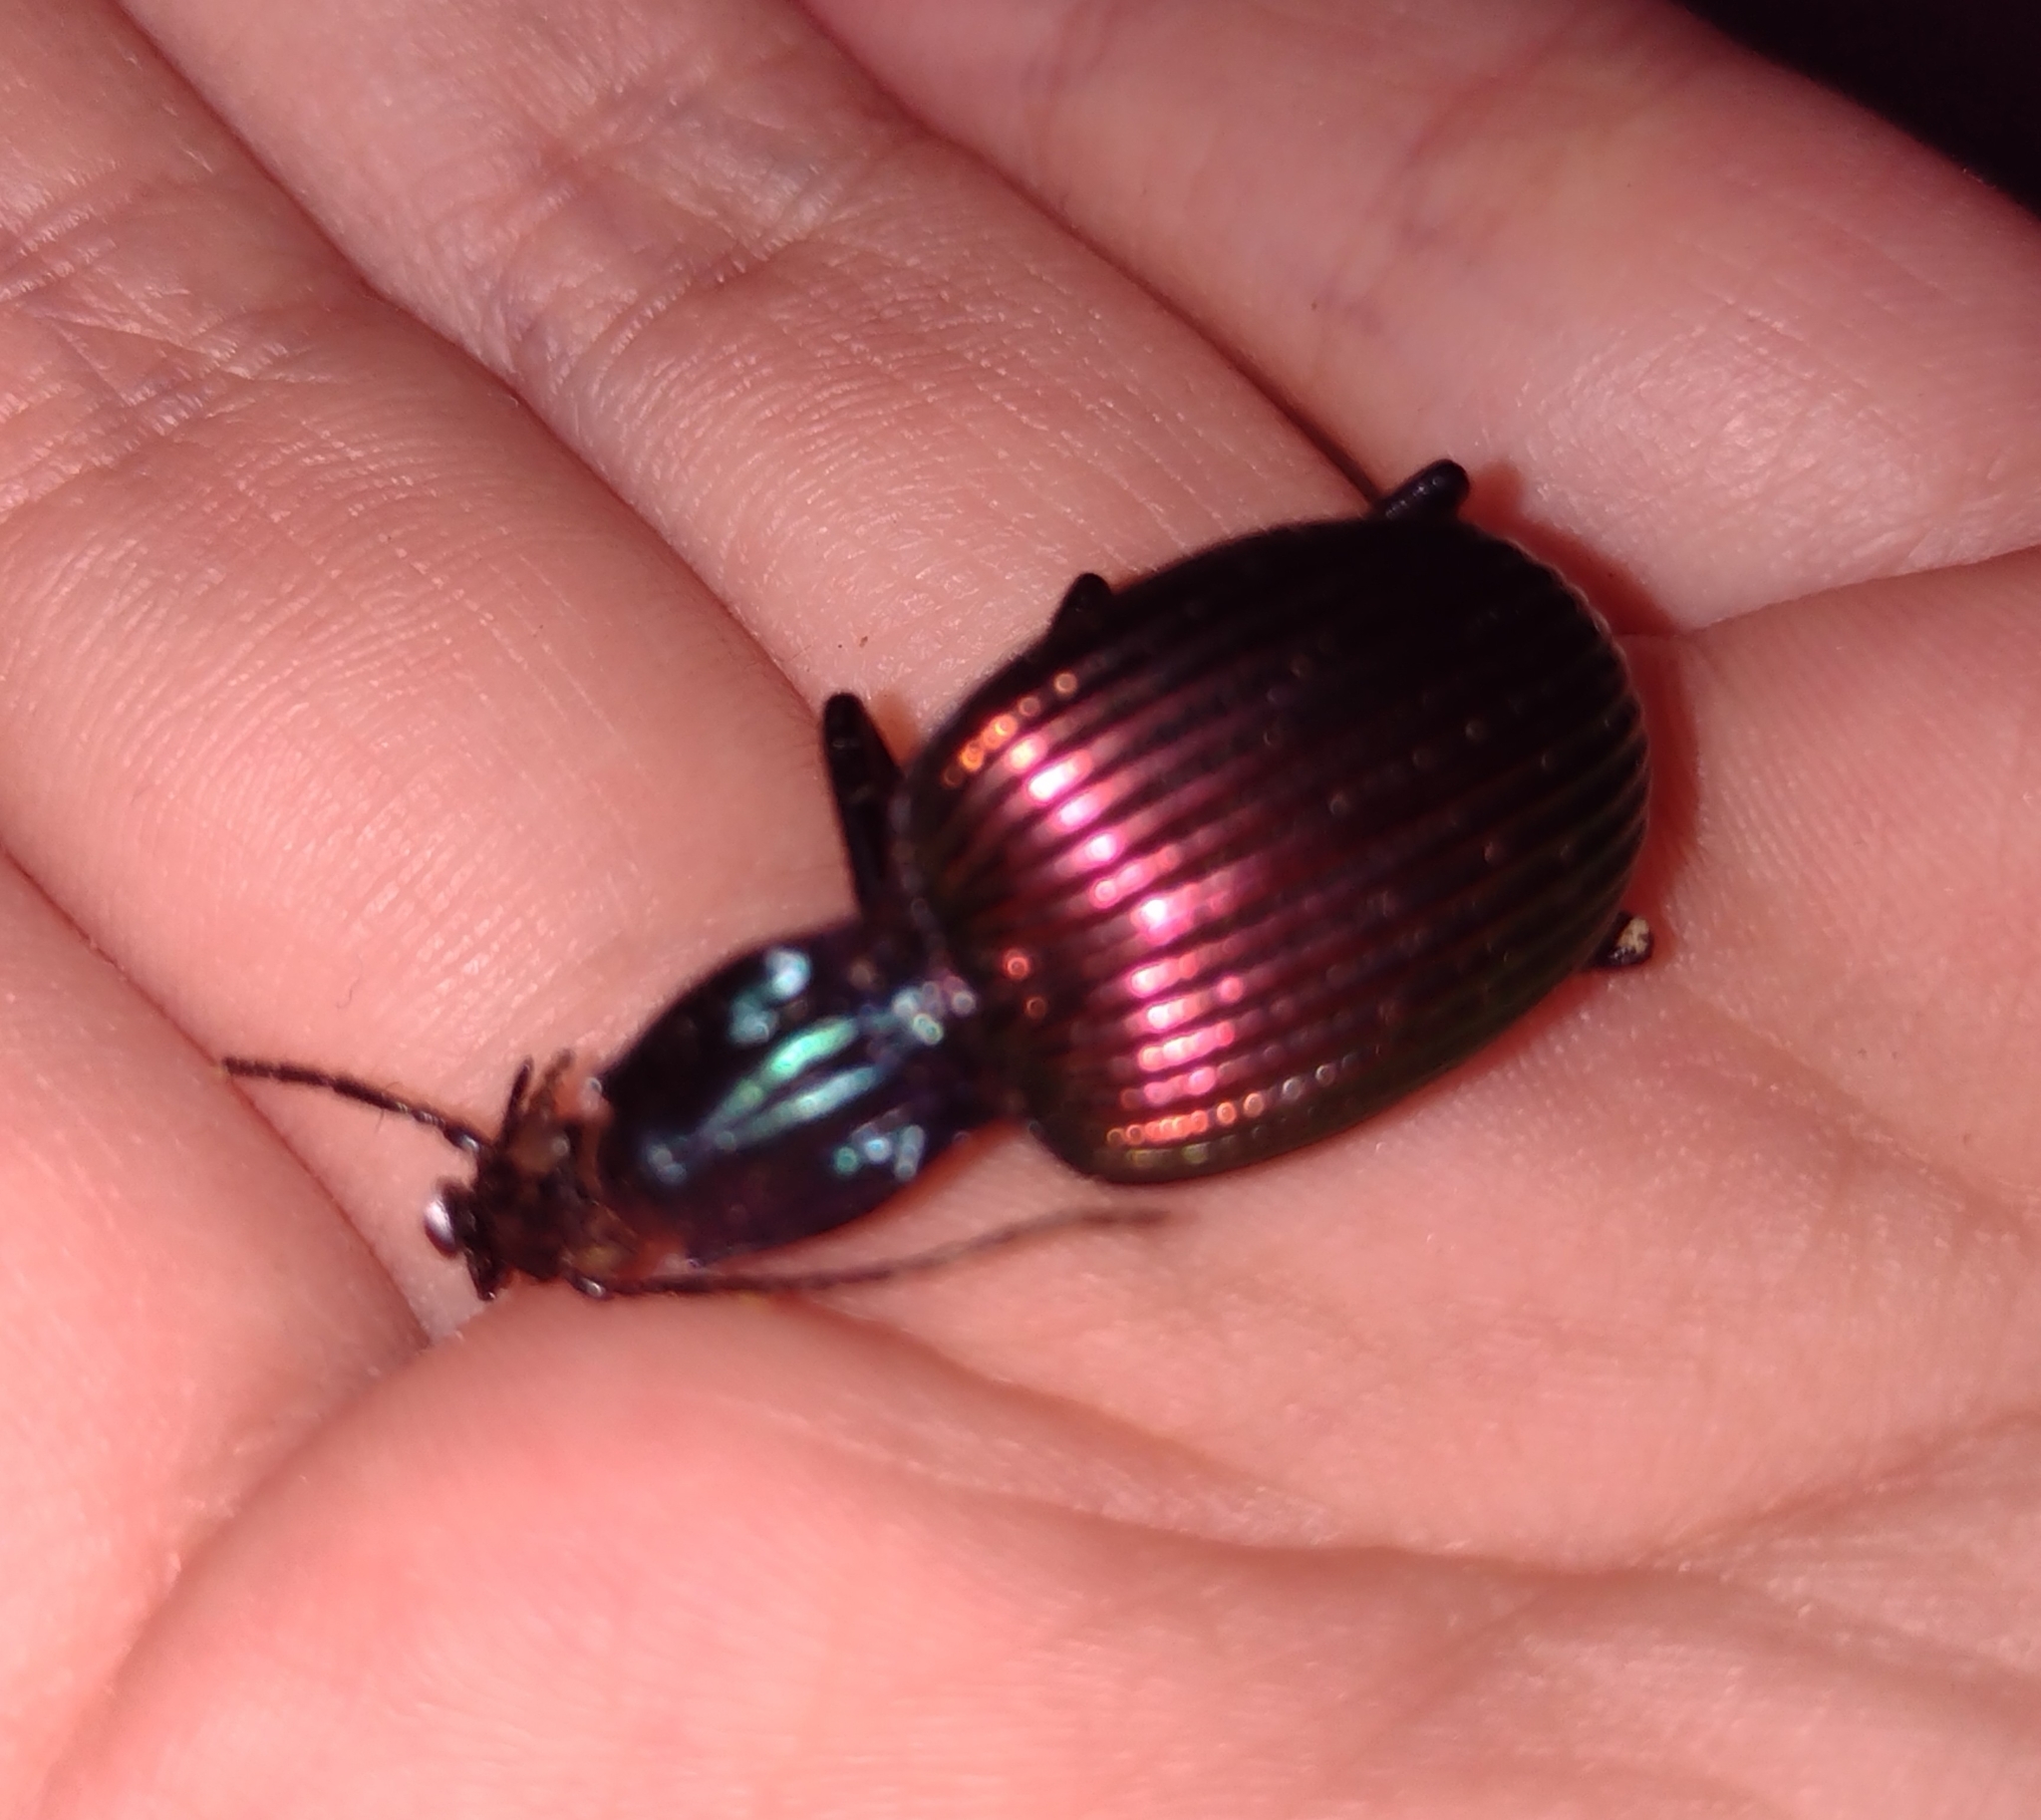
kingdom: Animalia
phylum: Arthropoda
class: Insecta
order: Coleoptera
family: Carabidae
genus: Brachygnathus
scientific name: Brachygnathus angusticollis
